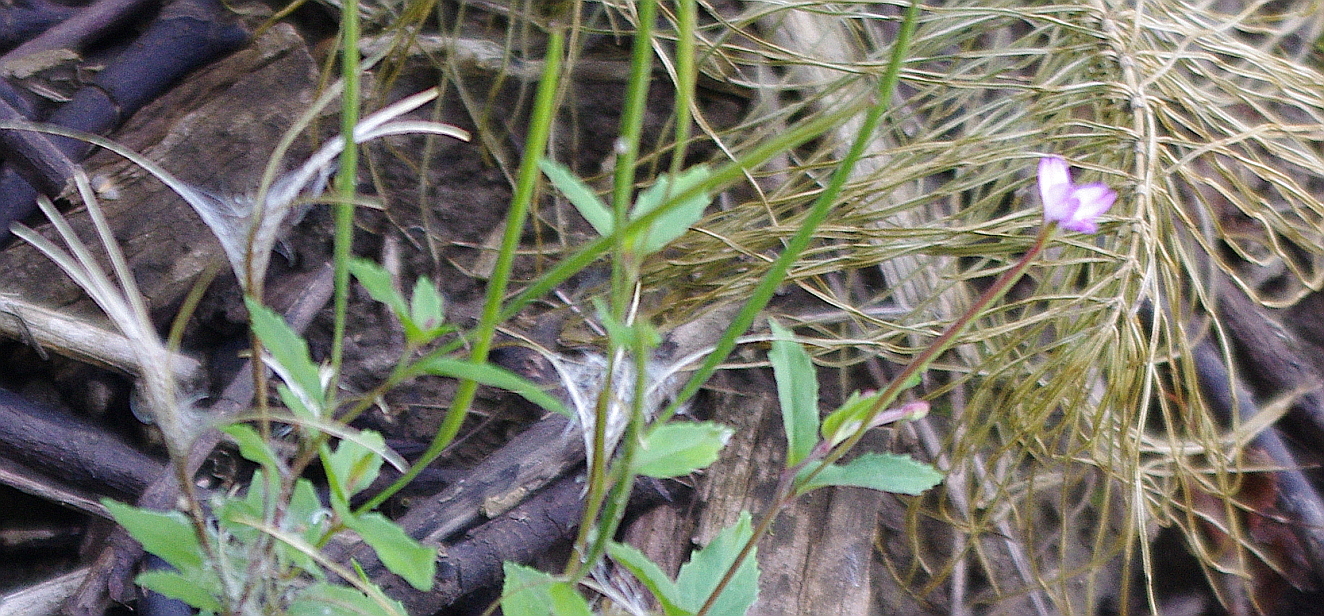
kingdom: Plantae
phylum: Tracheophyta
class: Magnoliopsida
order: Myrtales
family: Onagraceae
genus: Epilobium
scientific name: Epilobium montanum
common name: Broad-leaved willowherb
